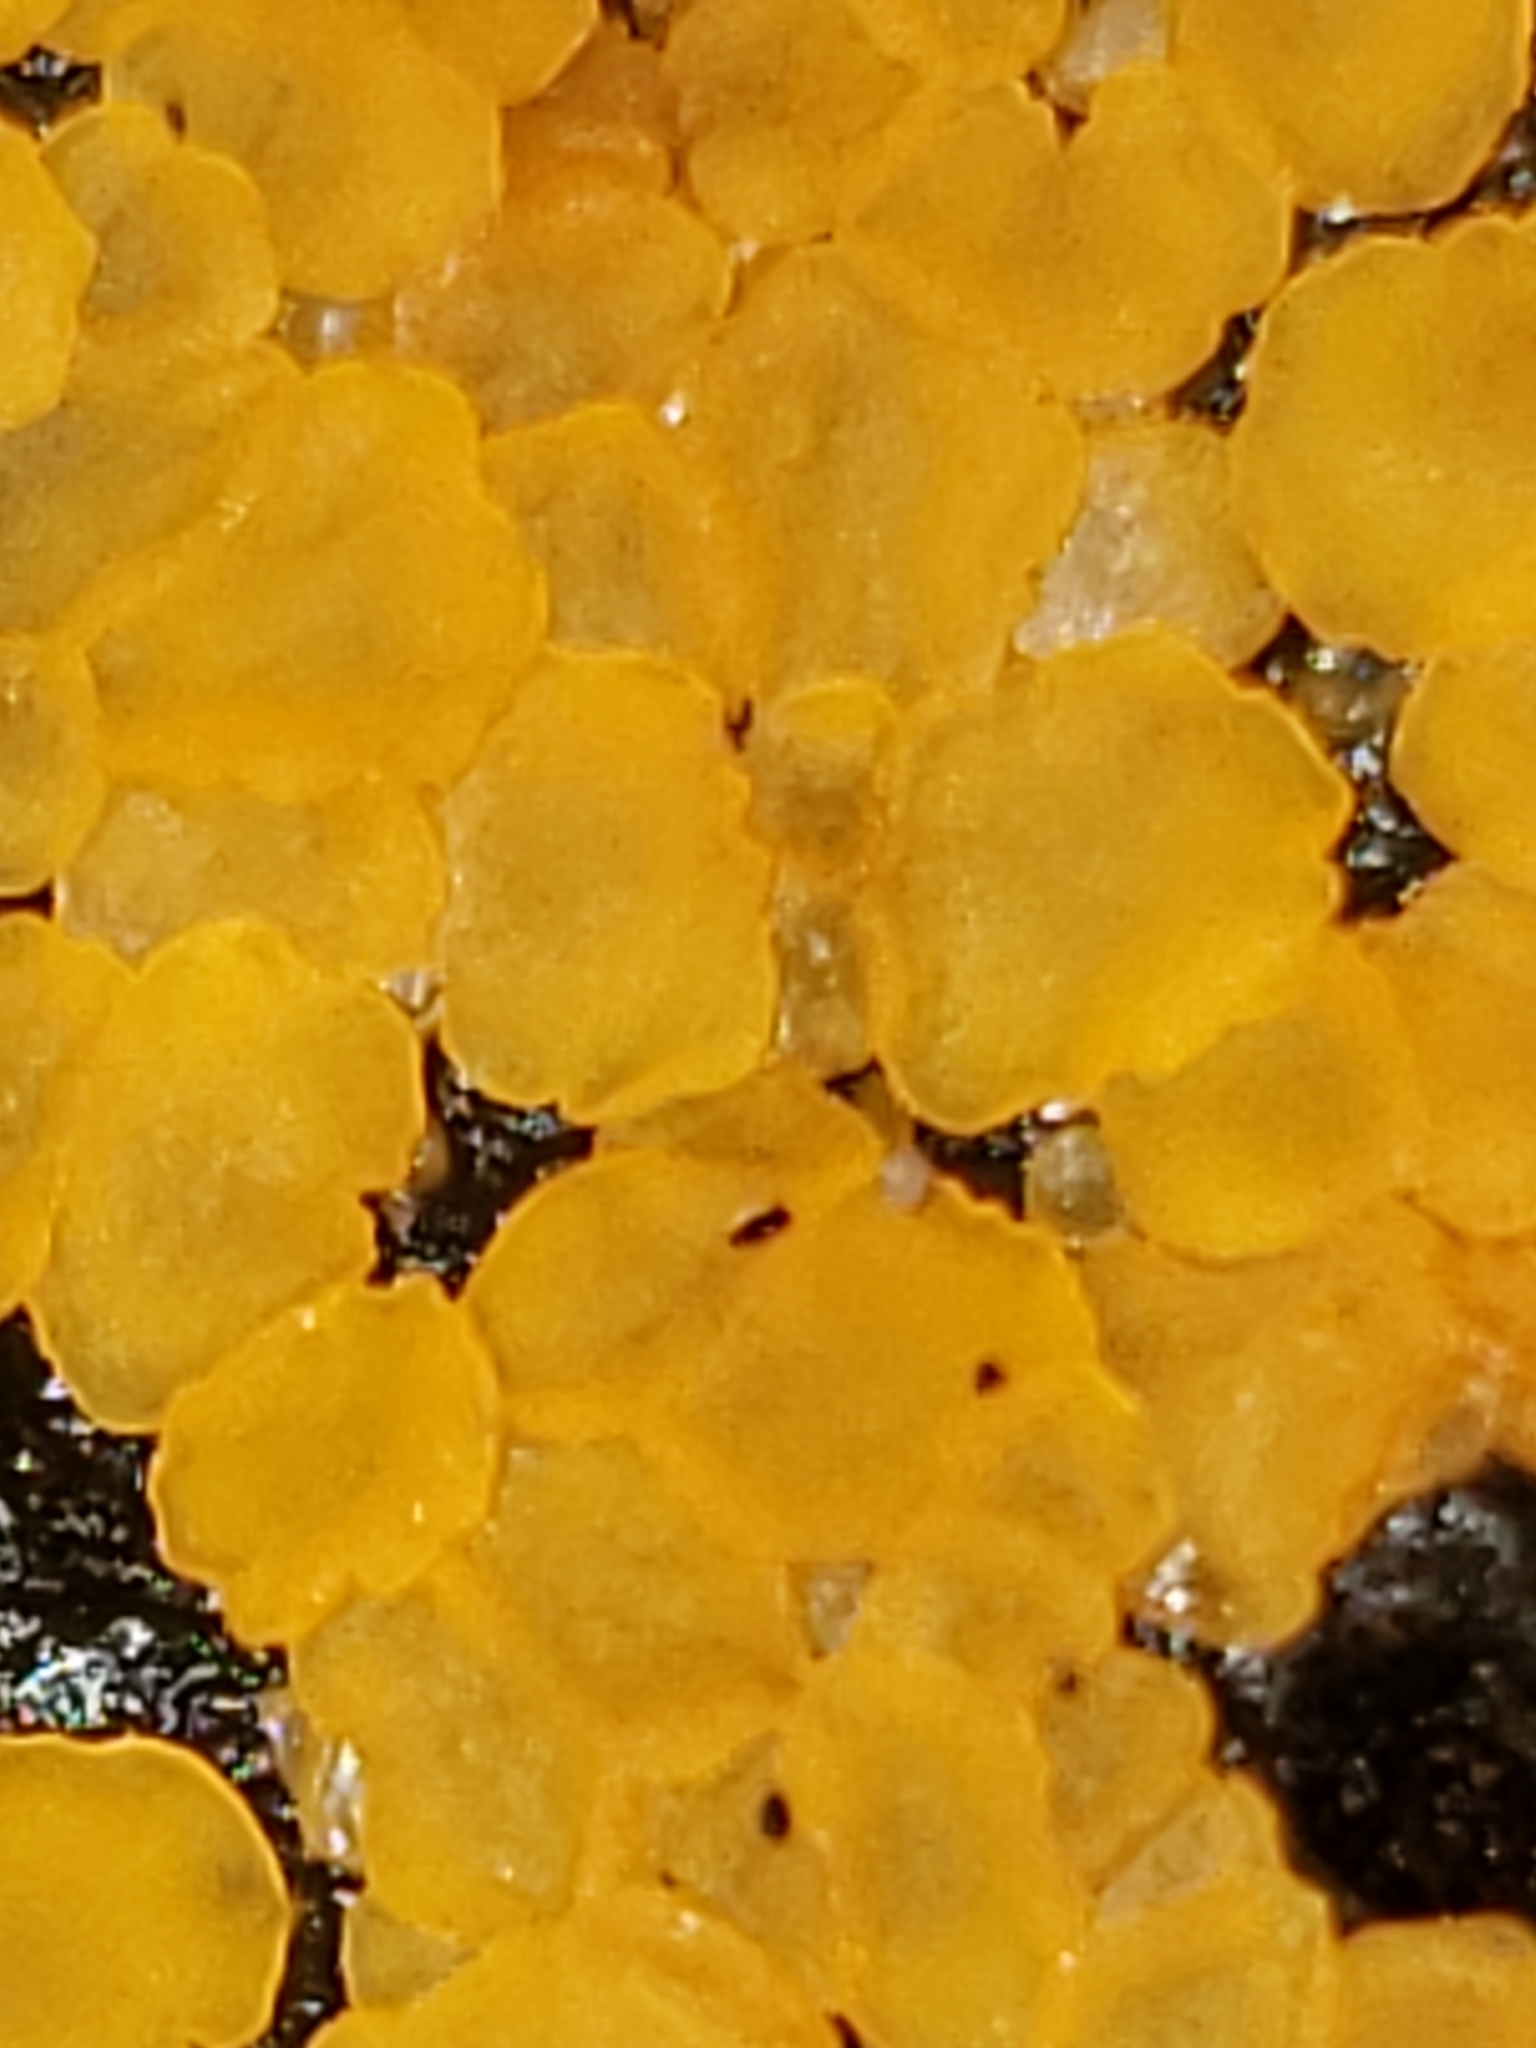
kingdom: Fungi
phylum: Ascomycota
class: Orbiliomycetes
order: Orbiliales
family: Orbiliaceae
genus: Orbilia
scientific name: Orbilia
